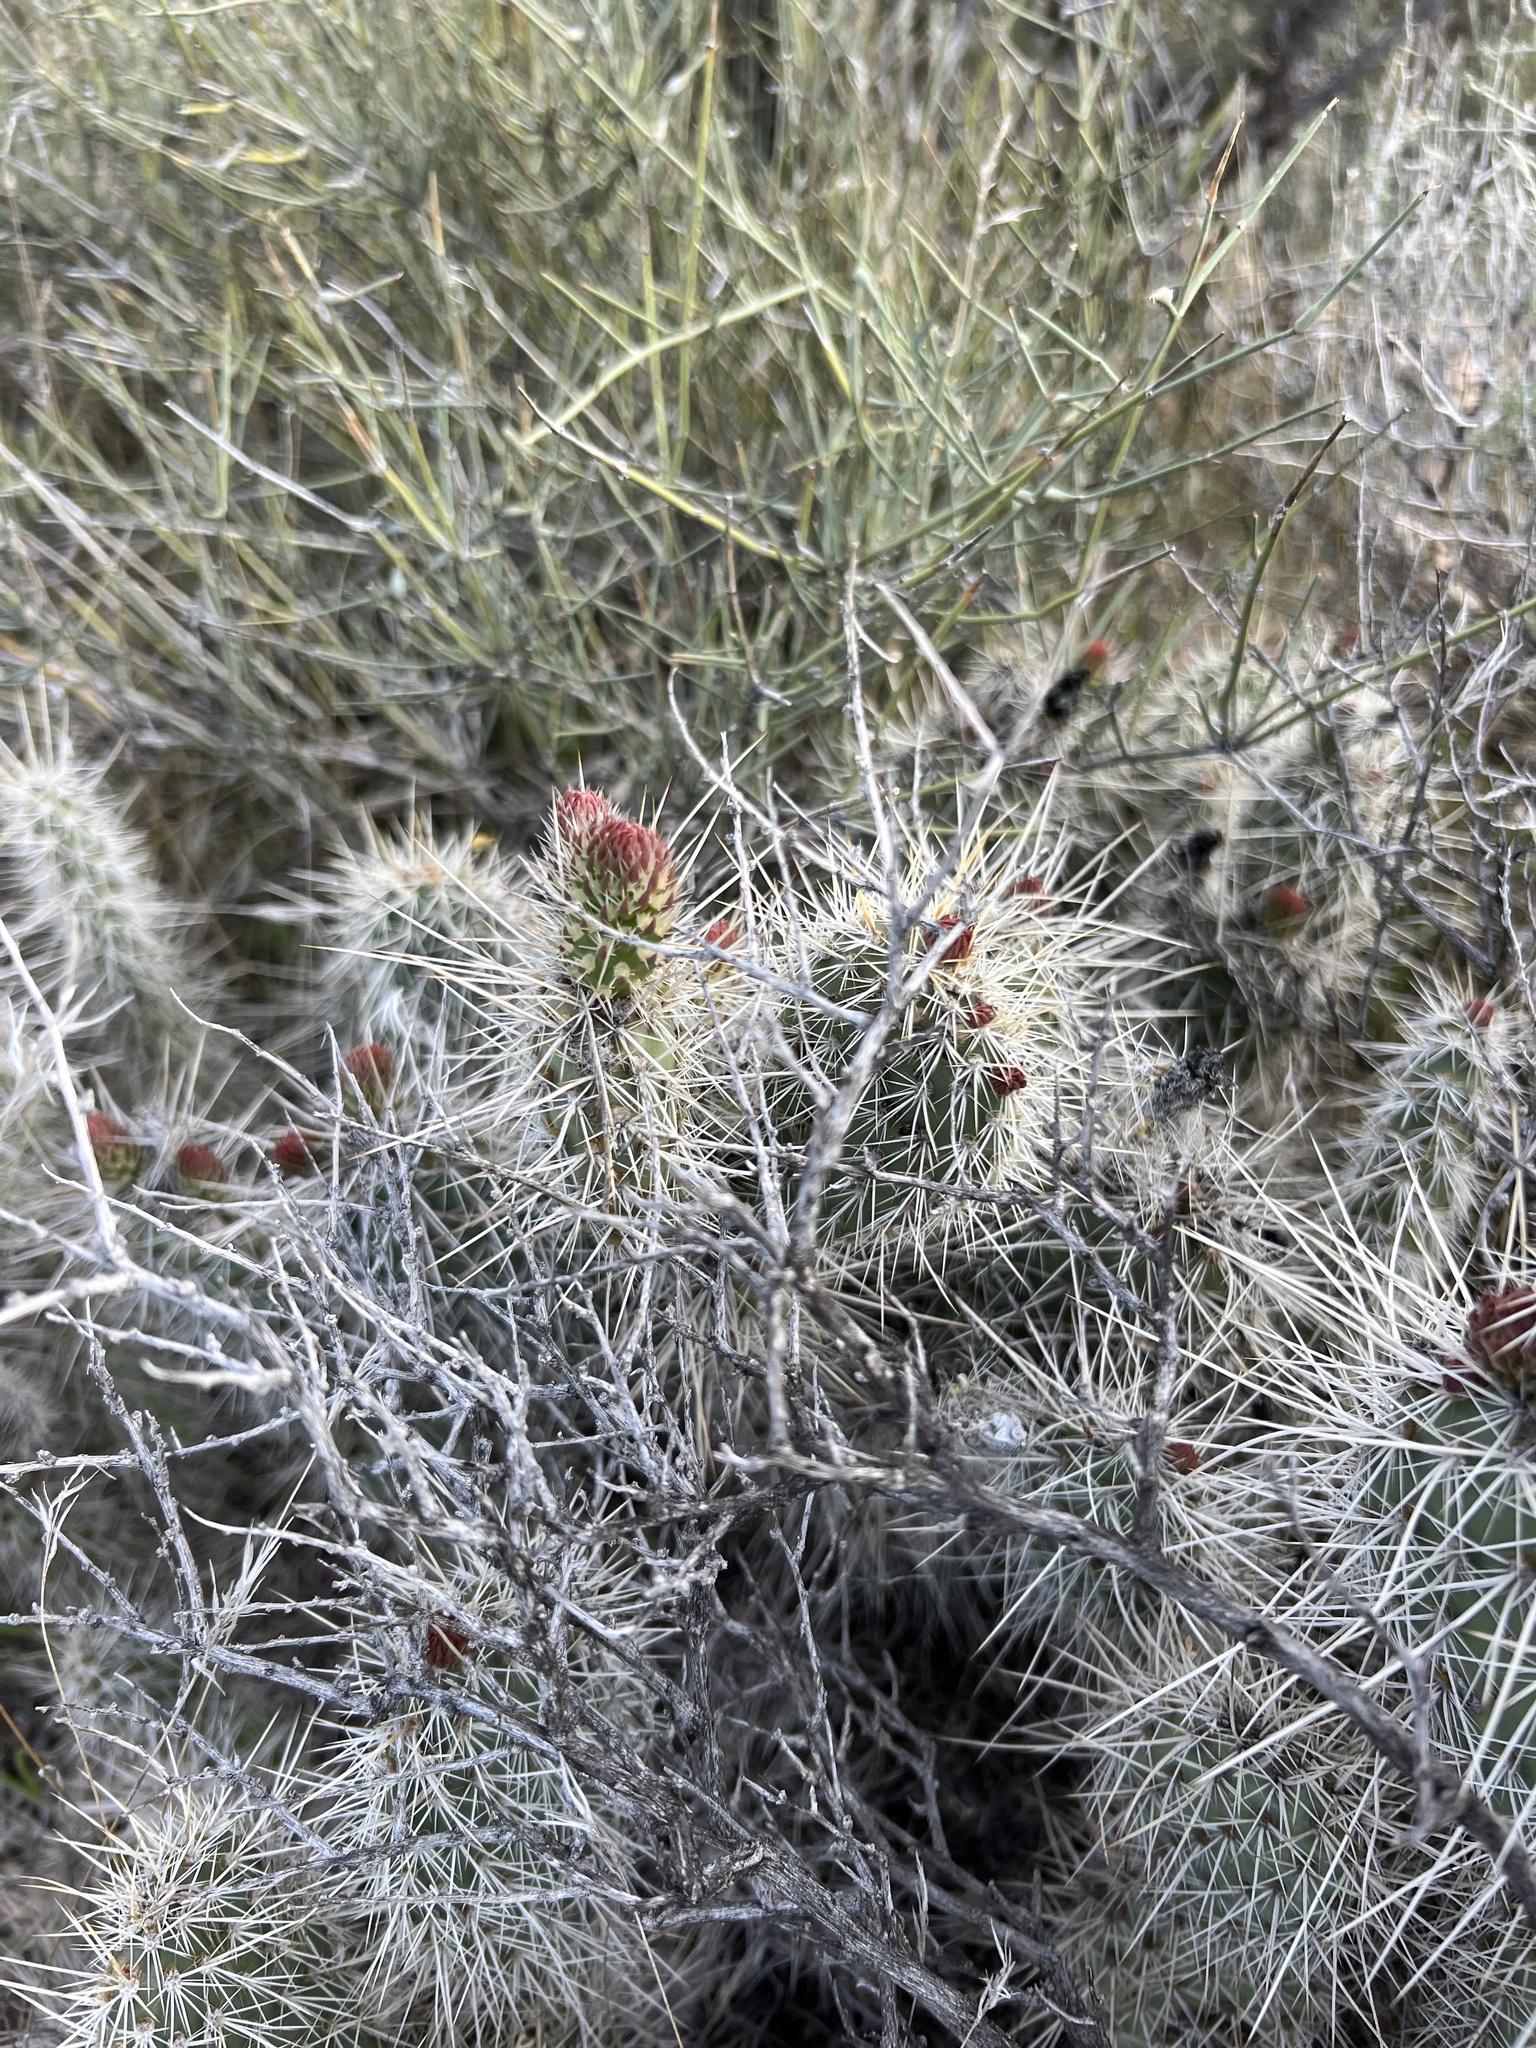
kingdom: Plantae
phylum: Tracheophyta
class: Magnoliopsida
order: Caryophyllales
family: Cactaceae
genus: Opuntia
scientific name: Opuntia polyacantha
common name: Plains prickly-pear
